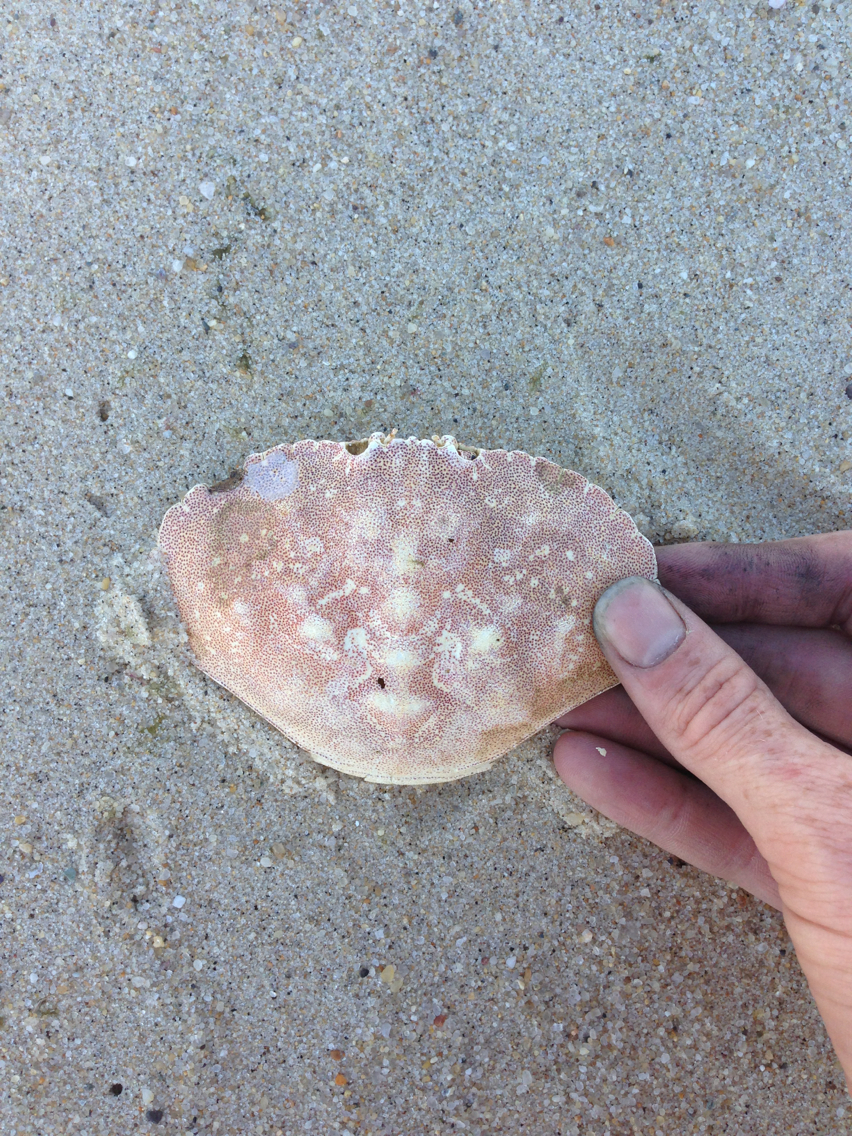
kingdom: Animalia
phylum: Arthropoda
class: Malacostraca
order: Decapoda
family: Cancridae
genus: Cancer
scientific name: Cancer irroratus
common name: Atlantic rock crab
